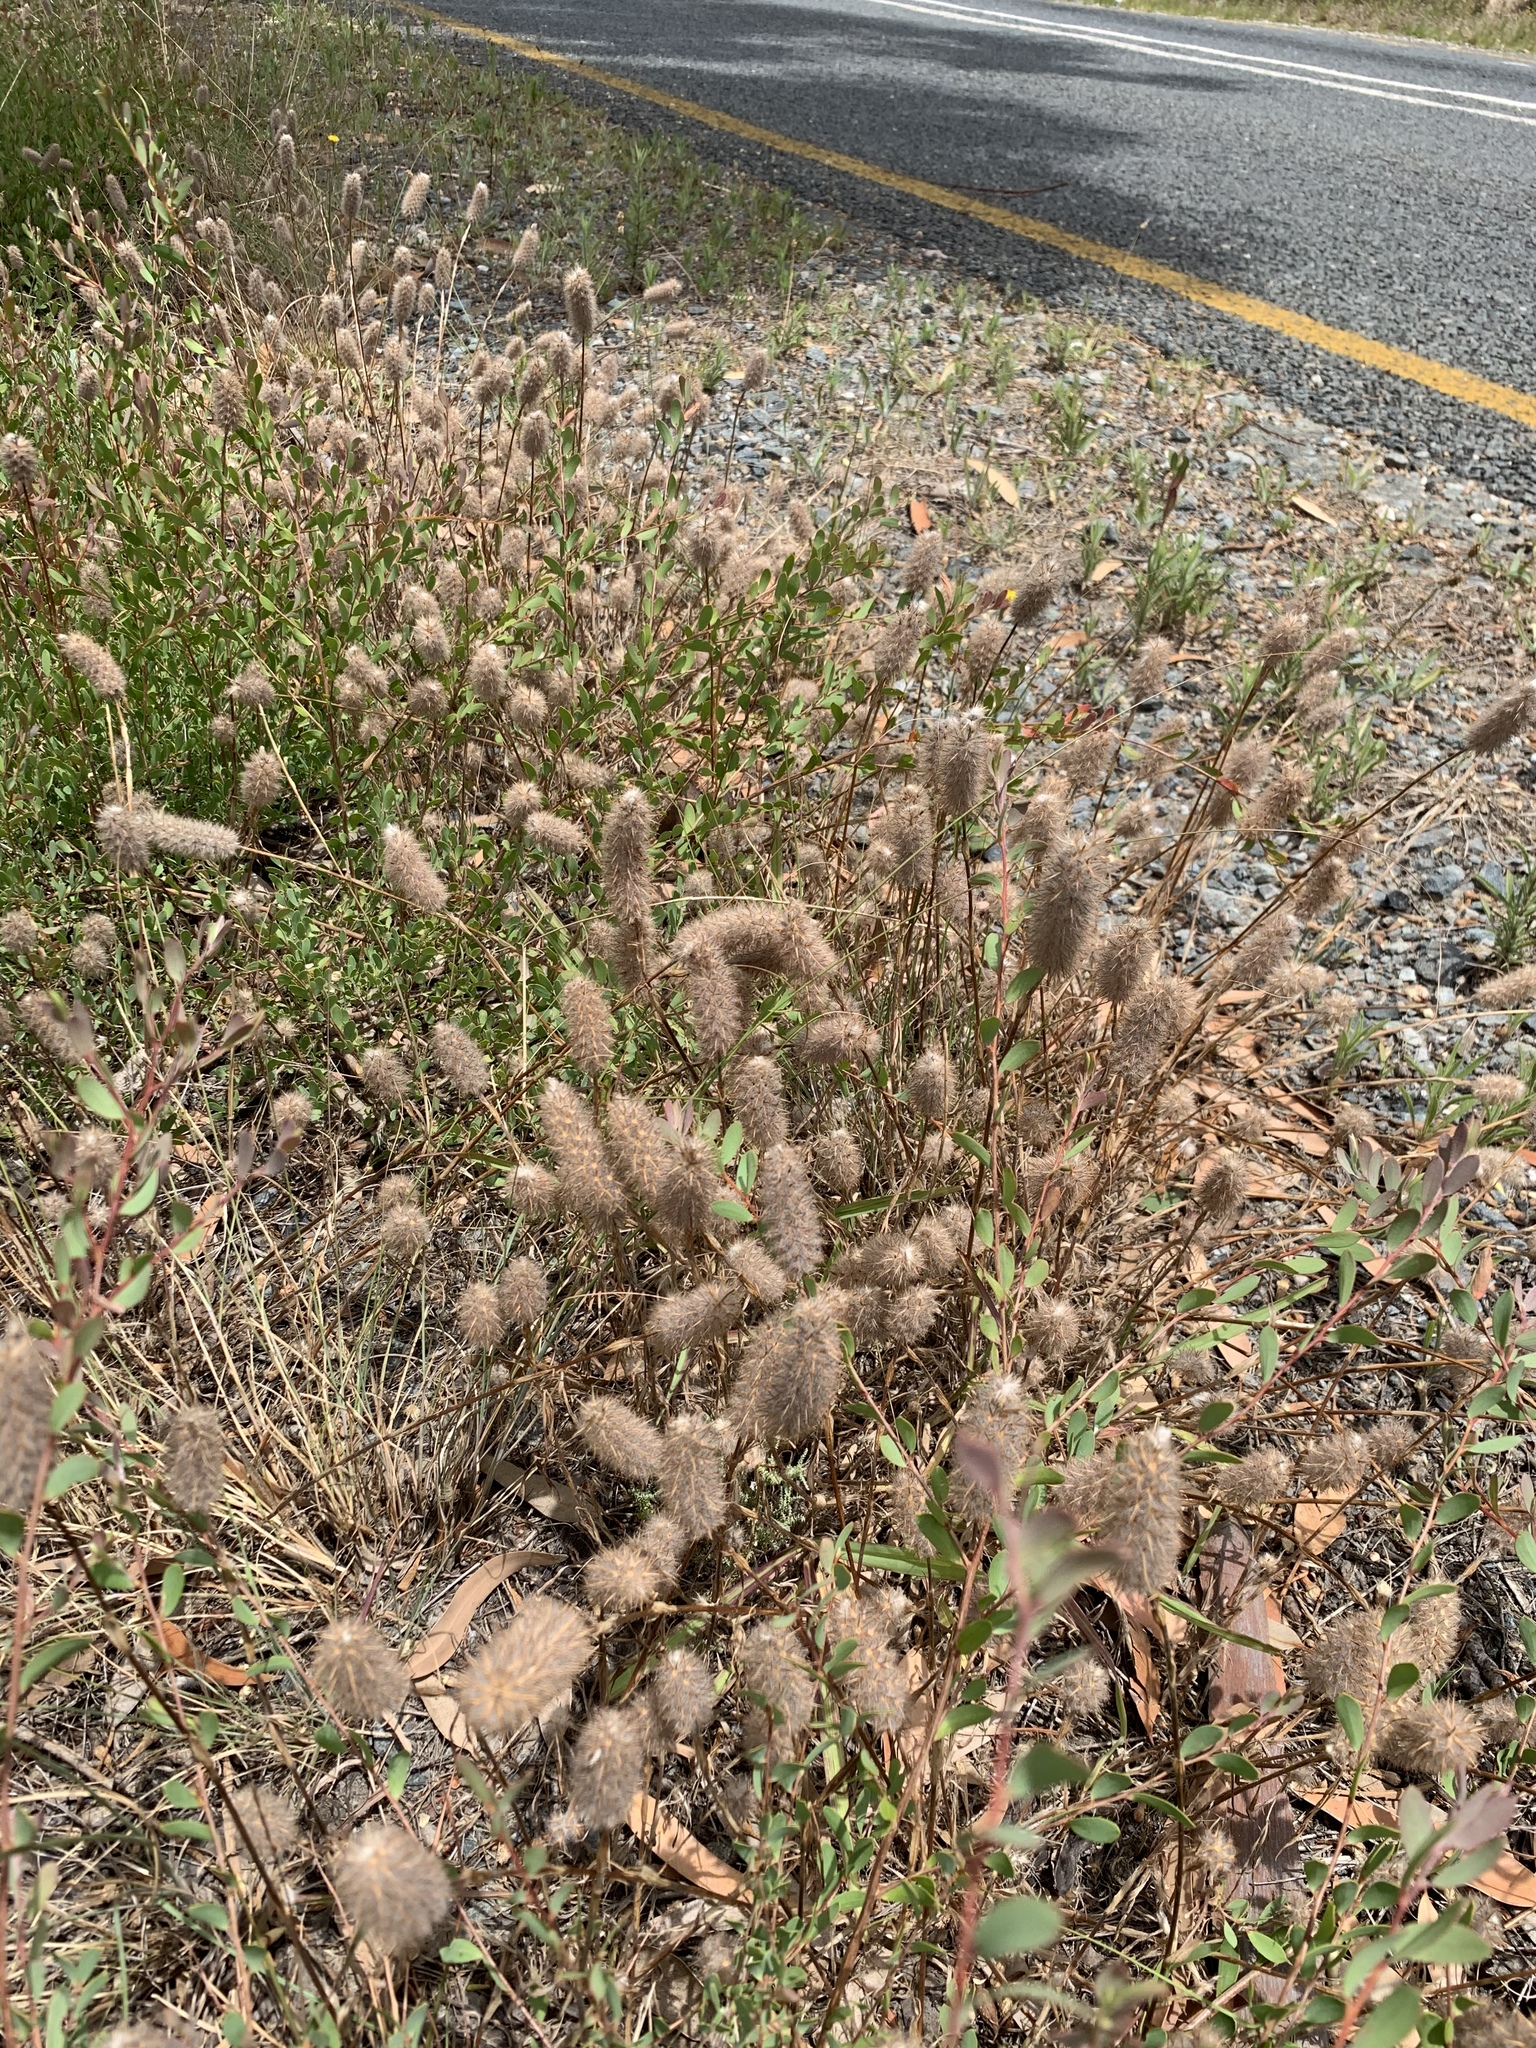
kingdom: Plantae
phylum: Tracheophyta
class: Magnoliopsida
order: Fabales
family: Fabaceae
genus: Trifolium
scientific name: Trifolium angustifolium
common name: Narrow clover
